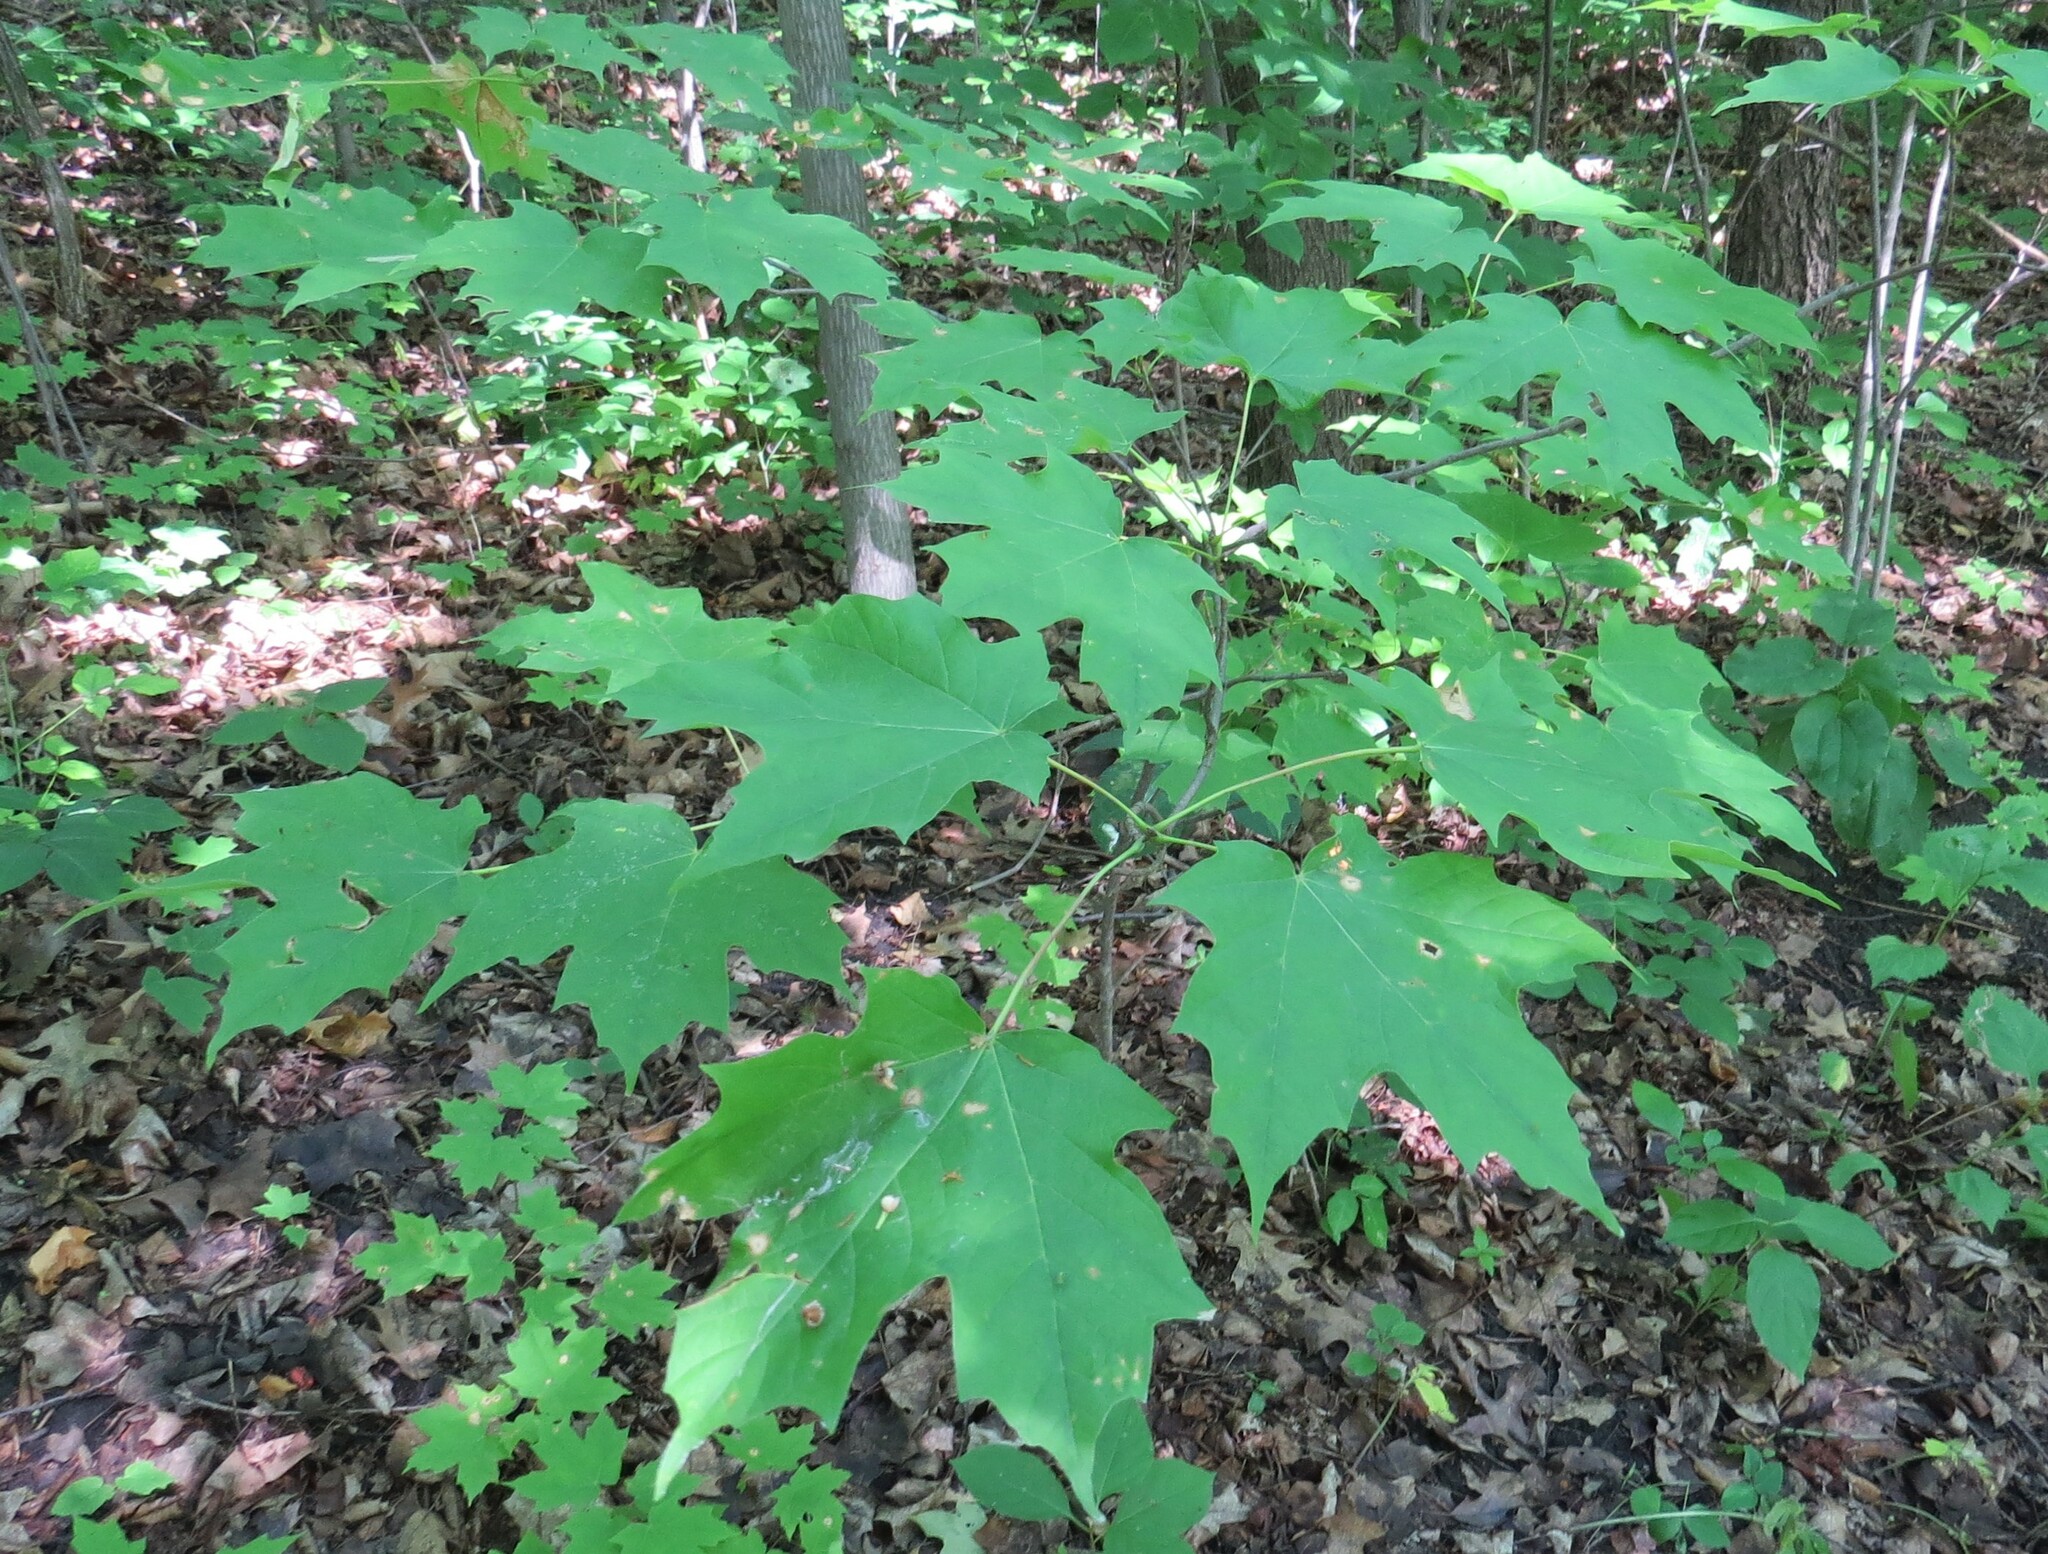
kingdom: Plantae
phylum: Tracheophyta
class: Magnoliopsida
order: Sapindales
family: Sapindaceae
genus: Acer
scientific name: Acer saccharum
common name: Sugar maple
